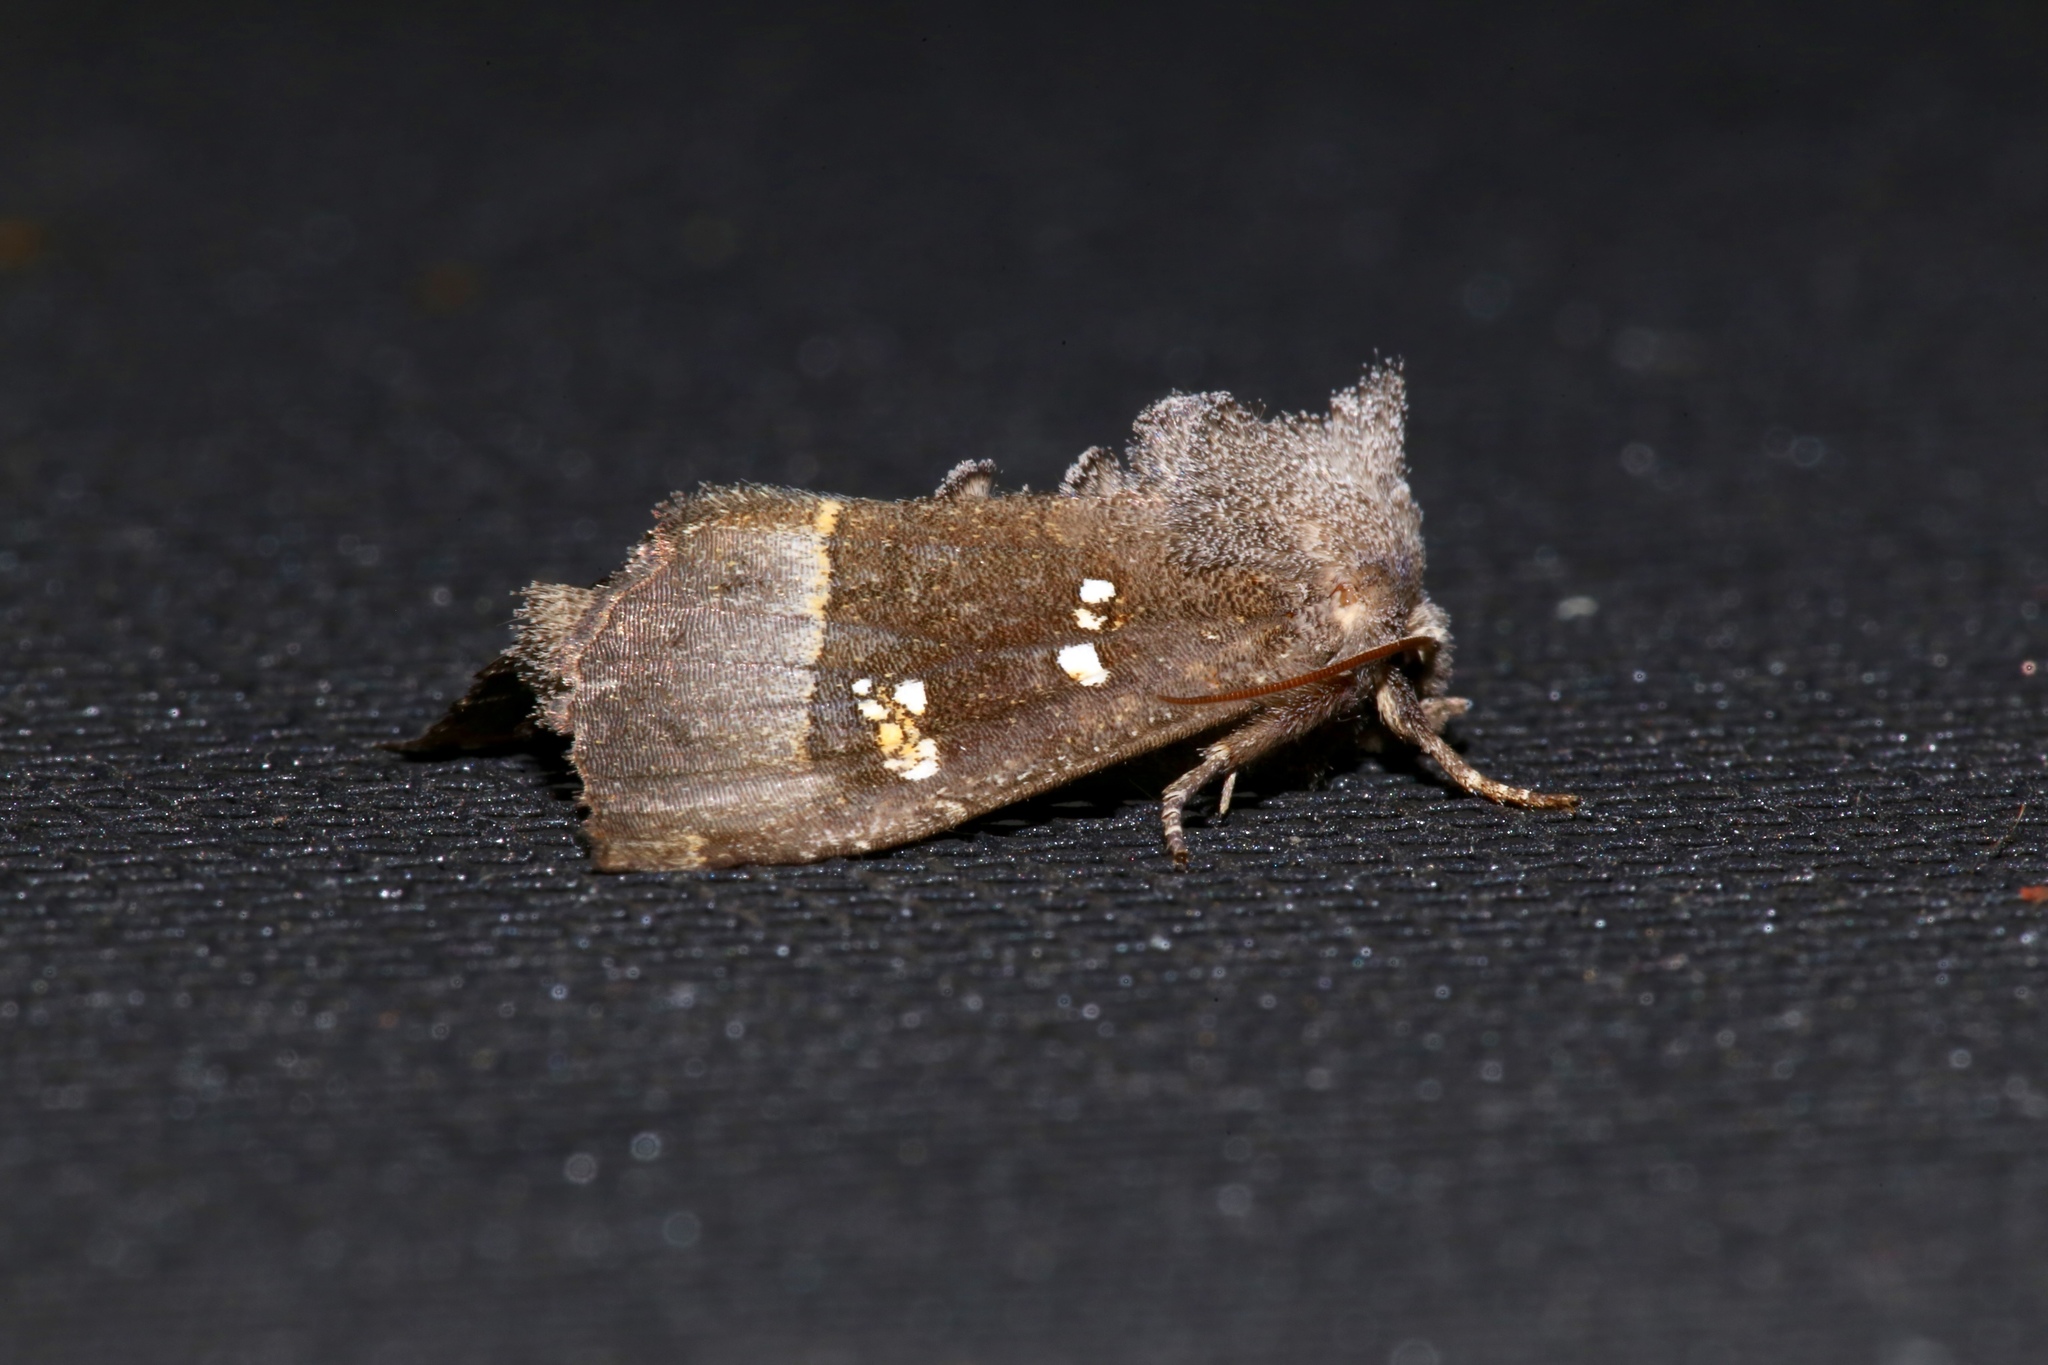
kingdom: Animalia
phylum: Arthropoda
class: Insecta
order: Lepidoptera
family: Noctuidae
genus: Papaipema
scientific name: Papaipema nebris
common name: Stalk borer
